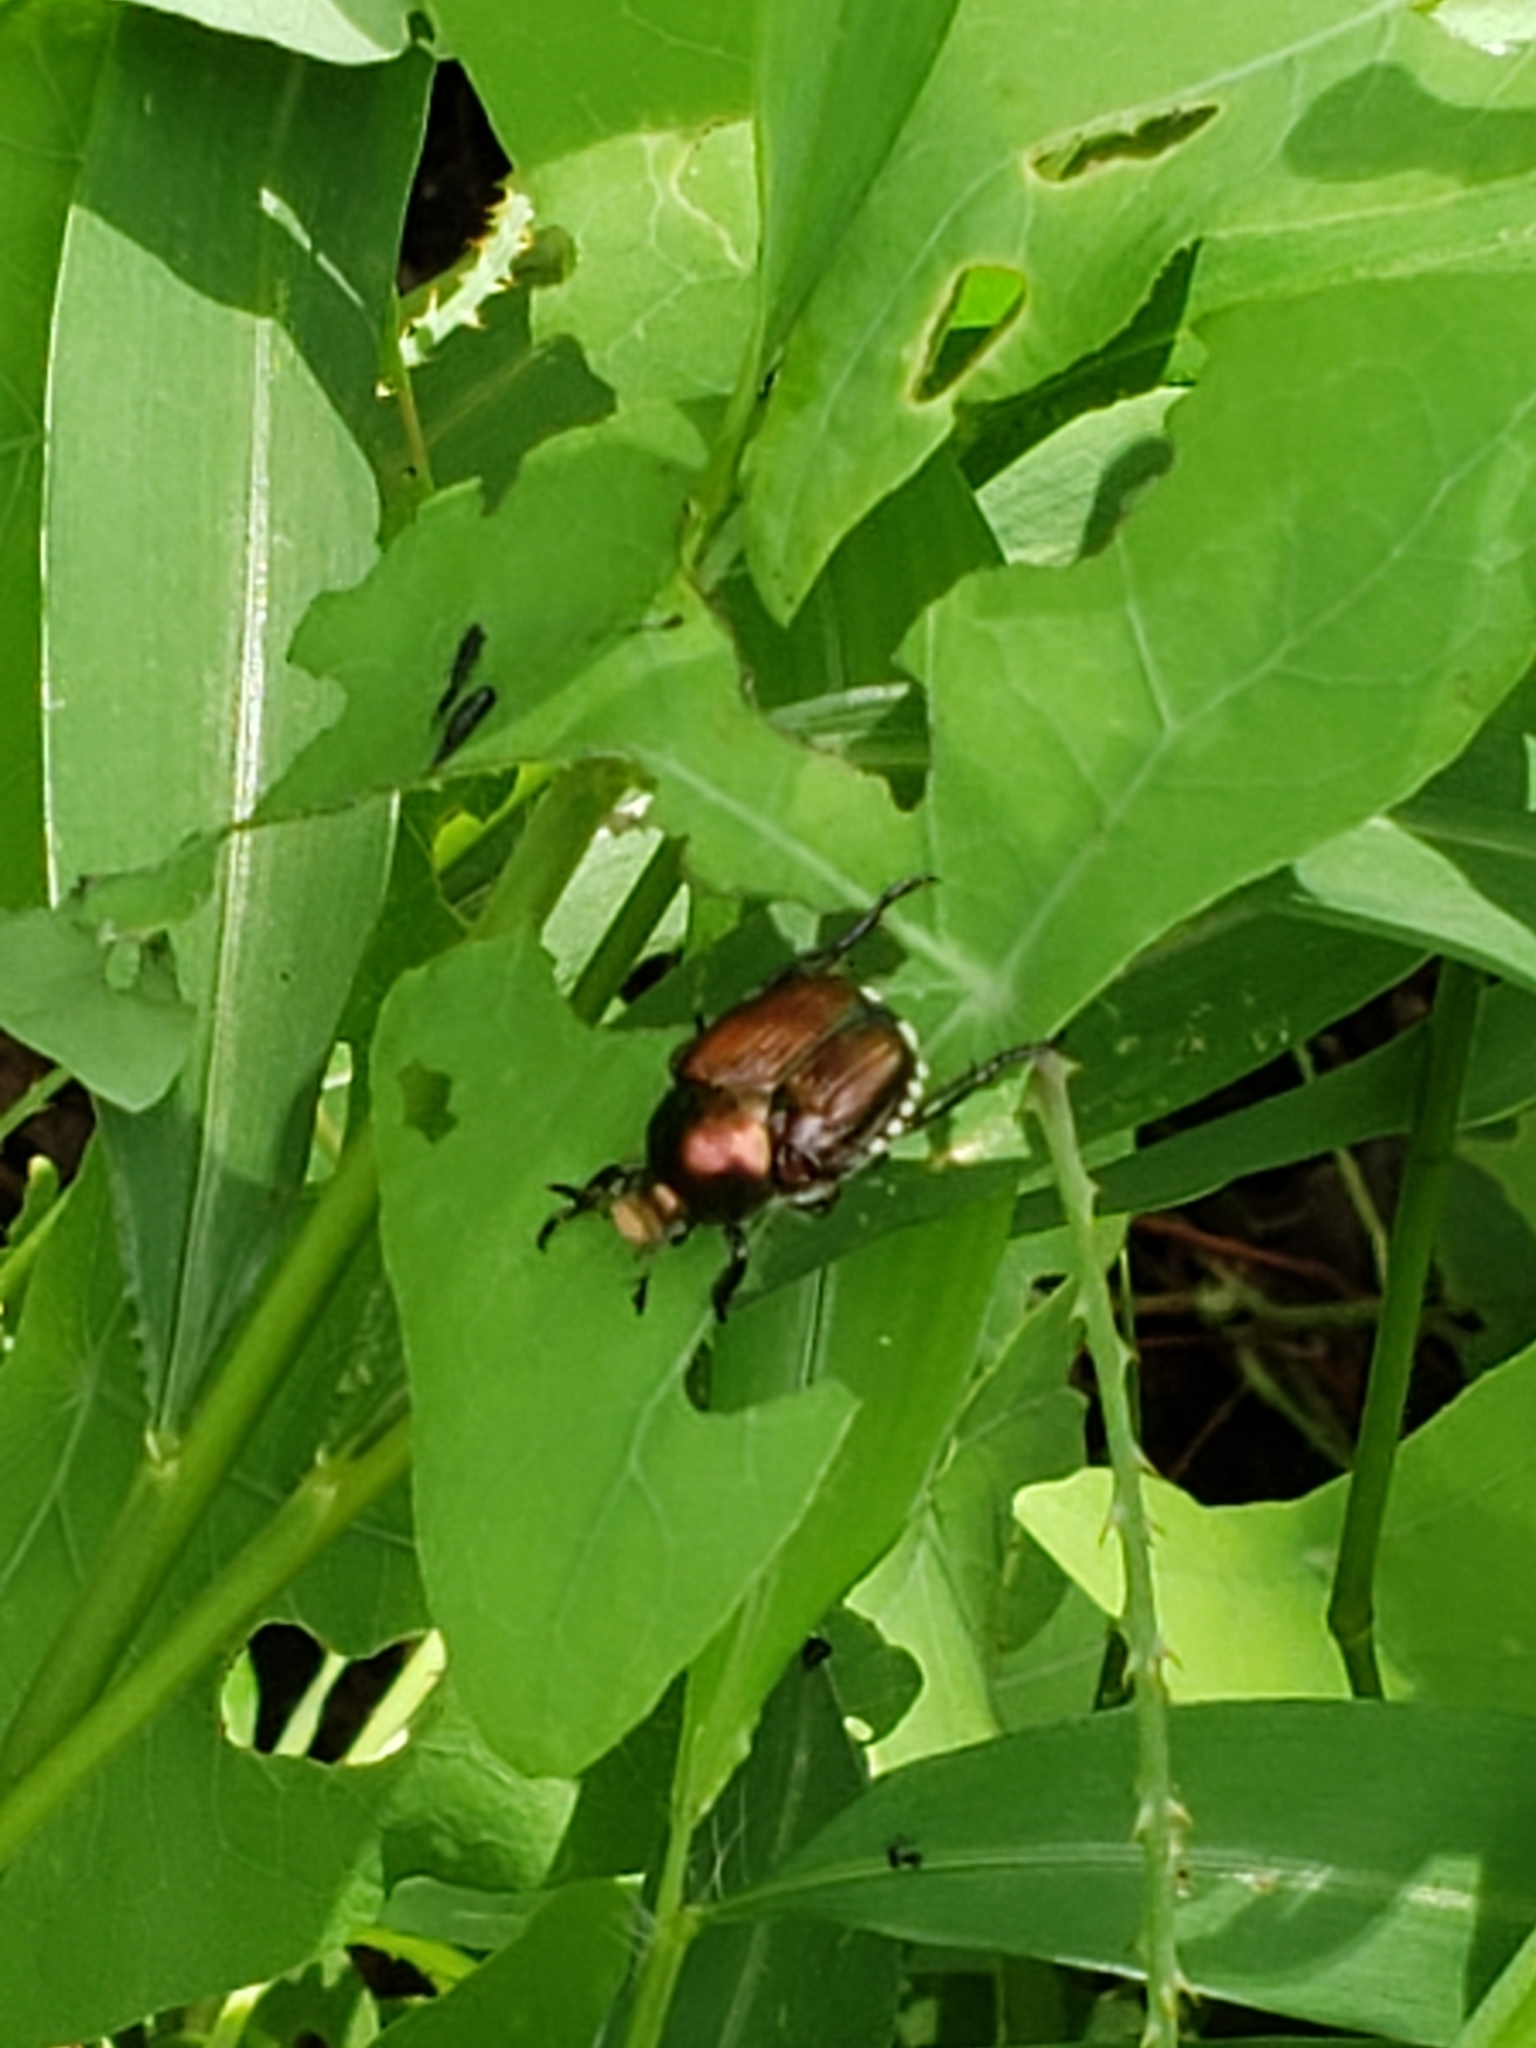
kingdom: Animalia
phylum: Arthropoda
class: Insecta
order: Coleoptera
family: Scarabaeidae
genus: Popillia
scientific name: Popillia japonica
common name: Japanese beetle
